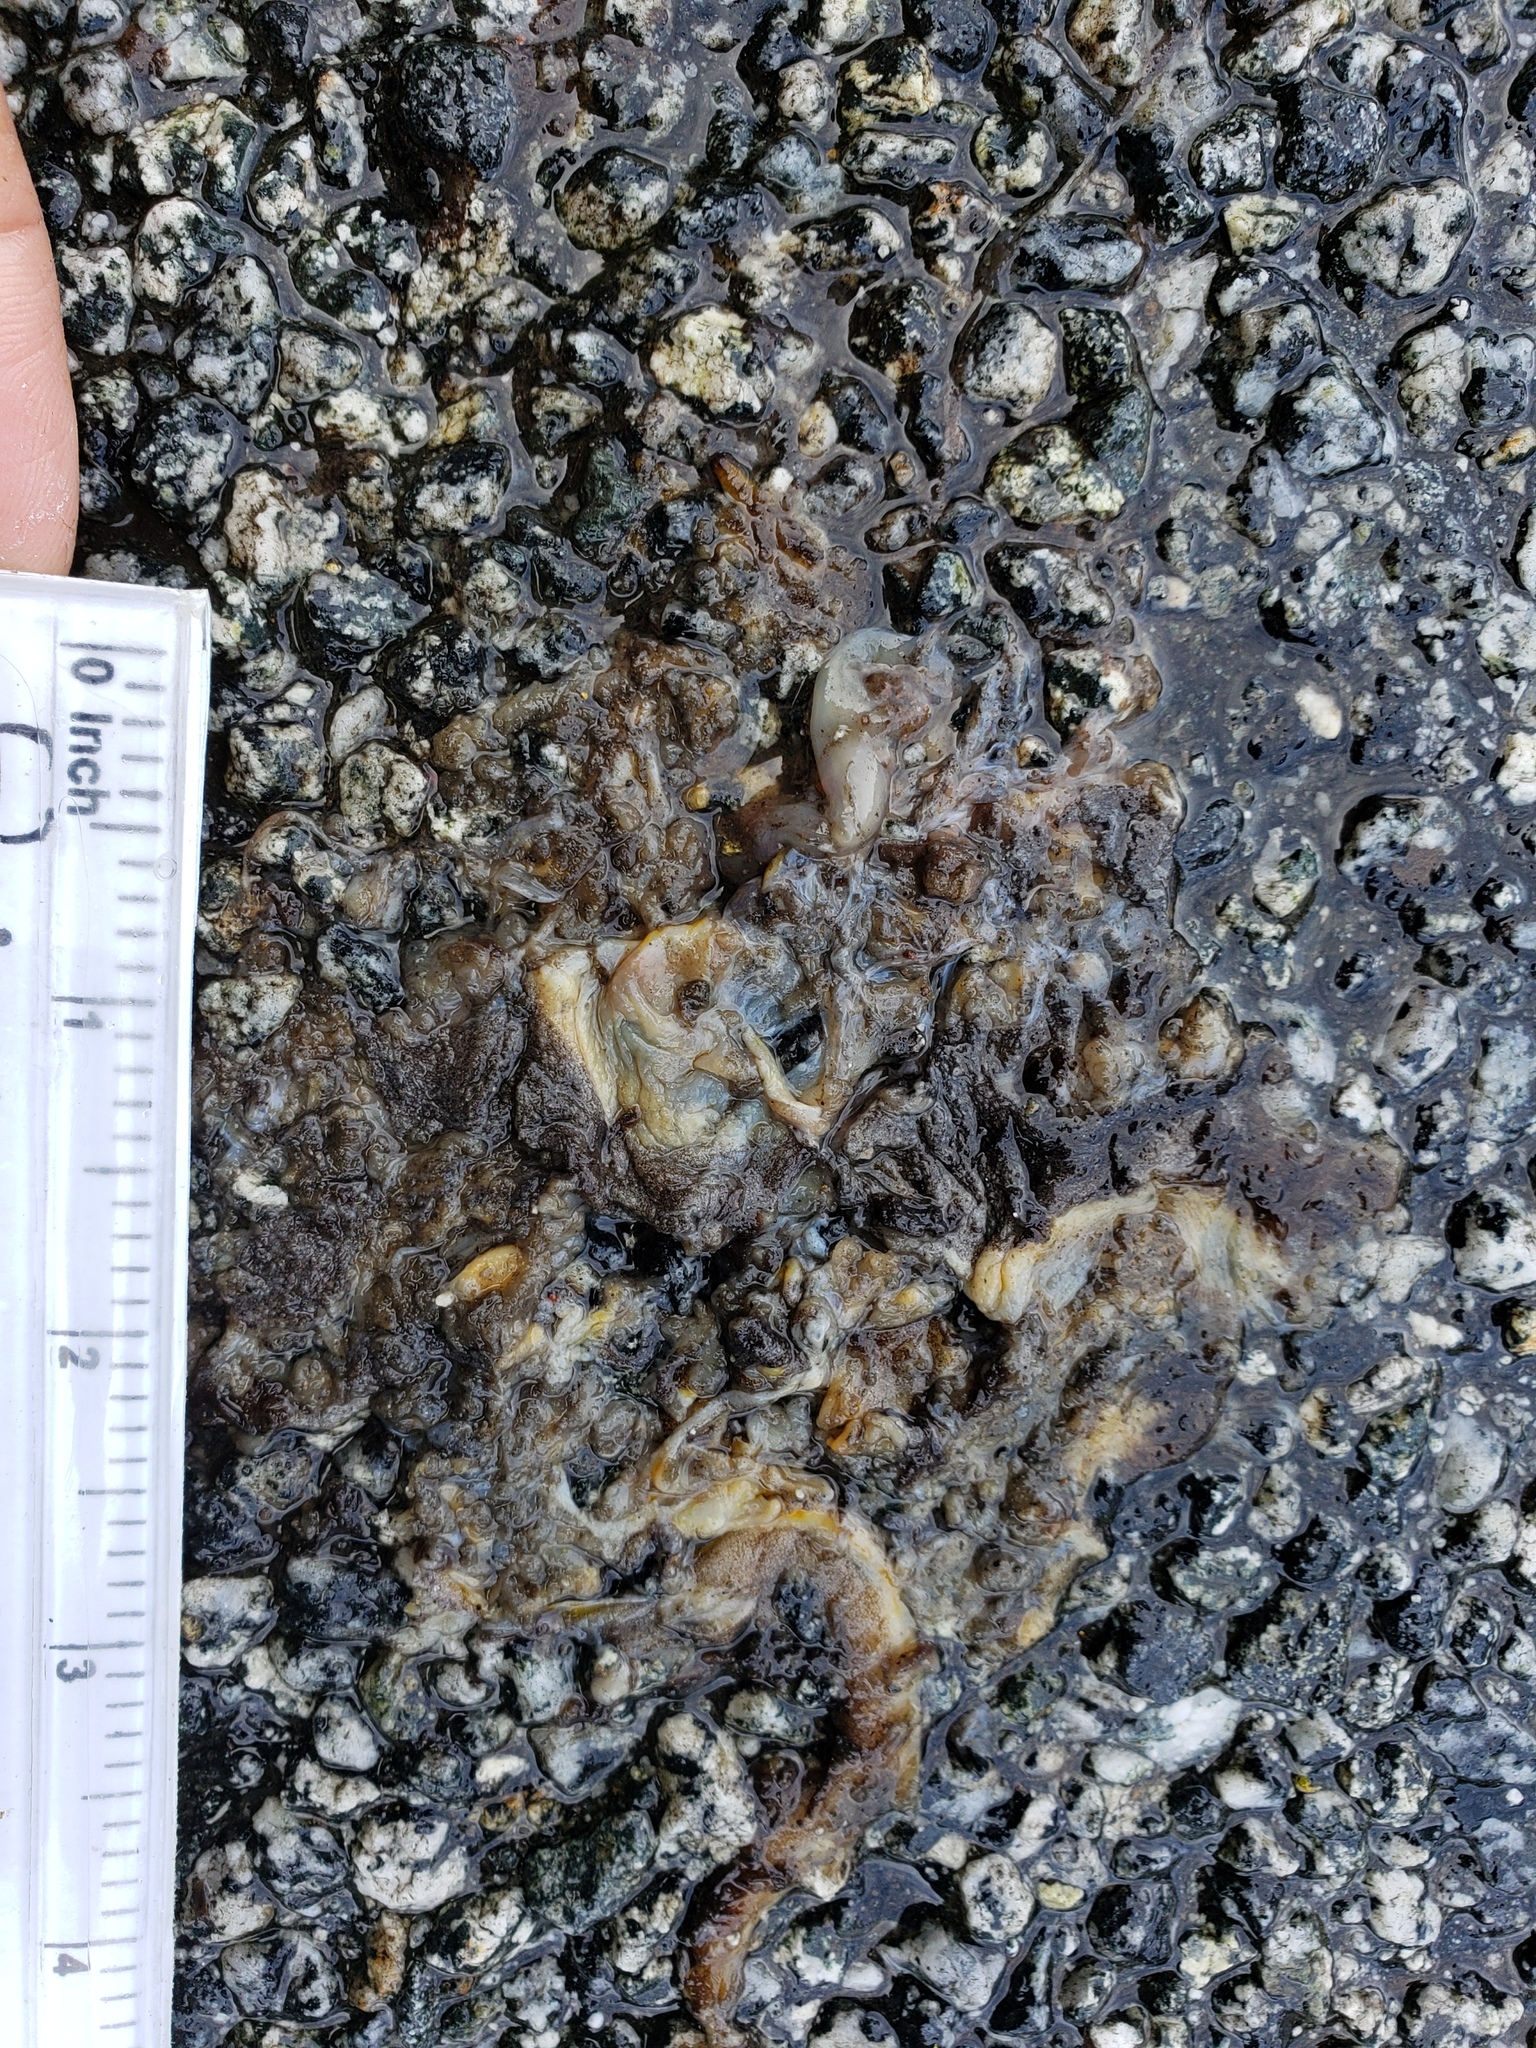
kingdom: Animalia
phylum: Chordata
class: Amphibia
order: Caudata
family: Salamandridae
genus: Taricha
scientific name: Taricha
